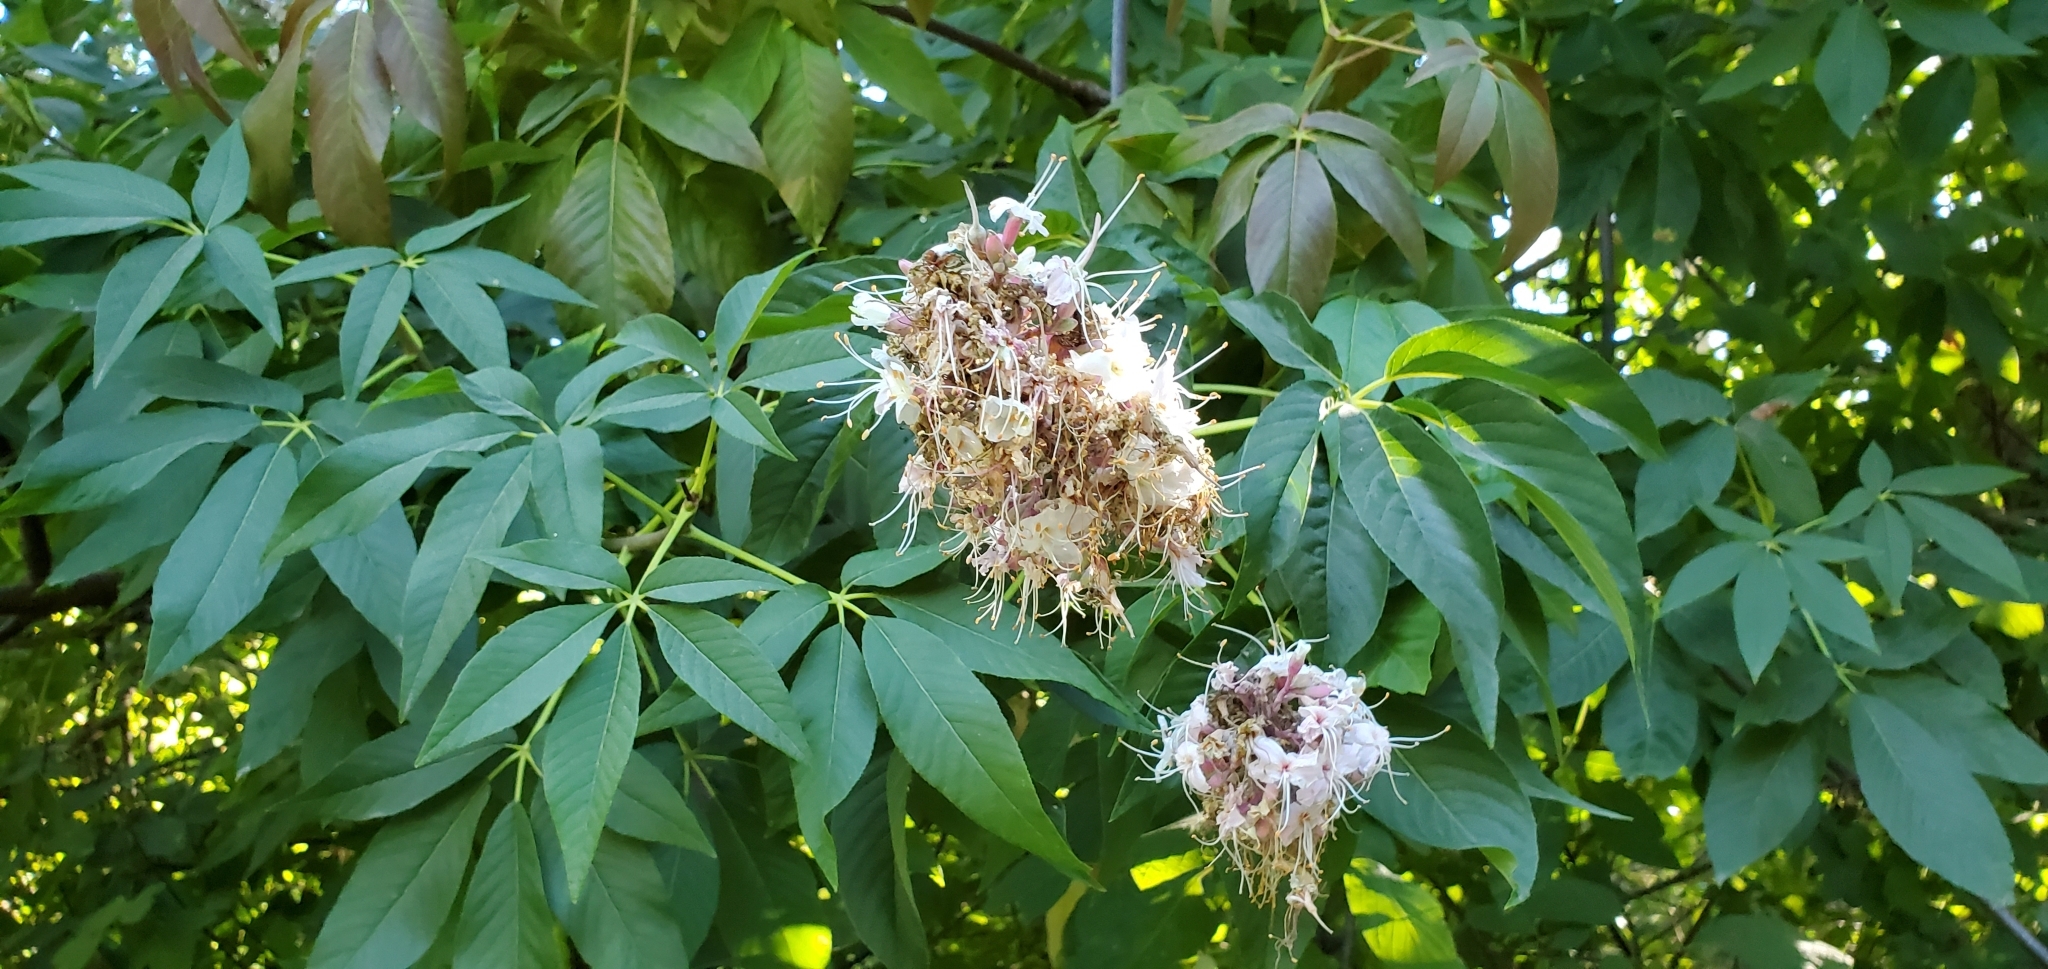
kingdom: Plantae
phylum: Tracheophyta
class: Magnoliopsida
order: Sapindales
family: Sapindaceae
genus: Aesculus
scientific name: Aesculus californica
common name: California buckeye
